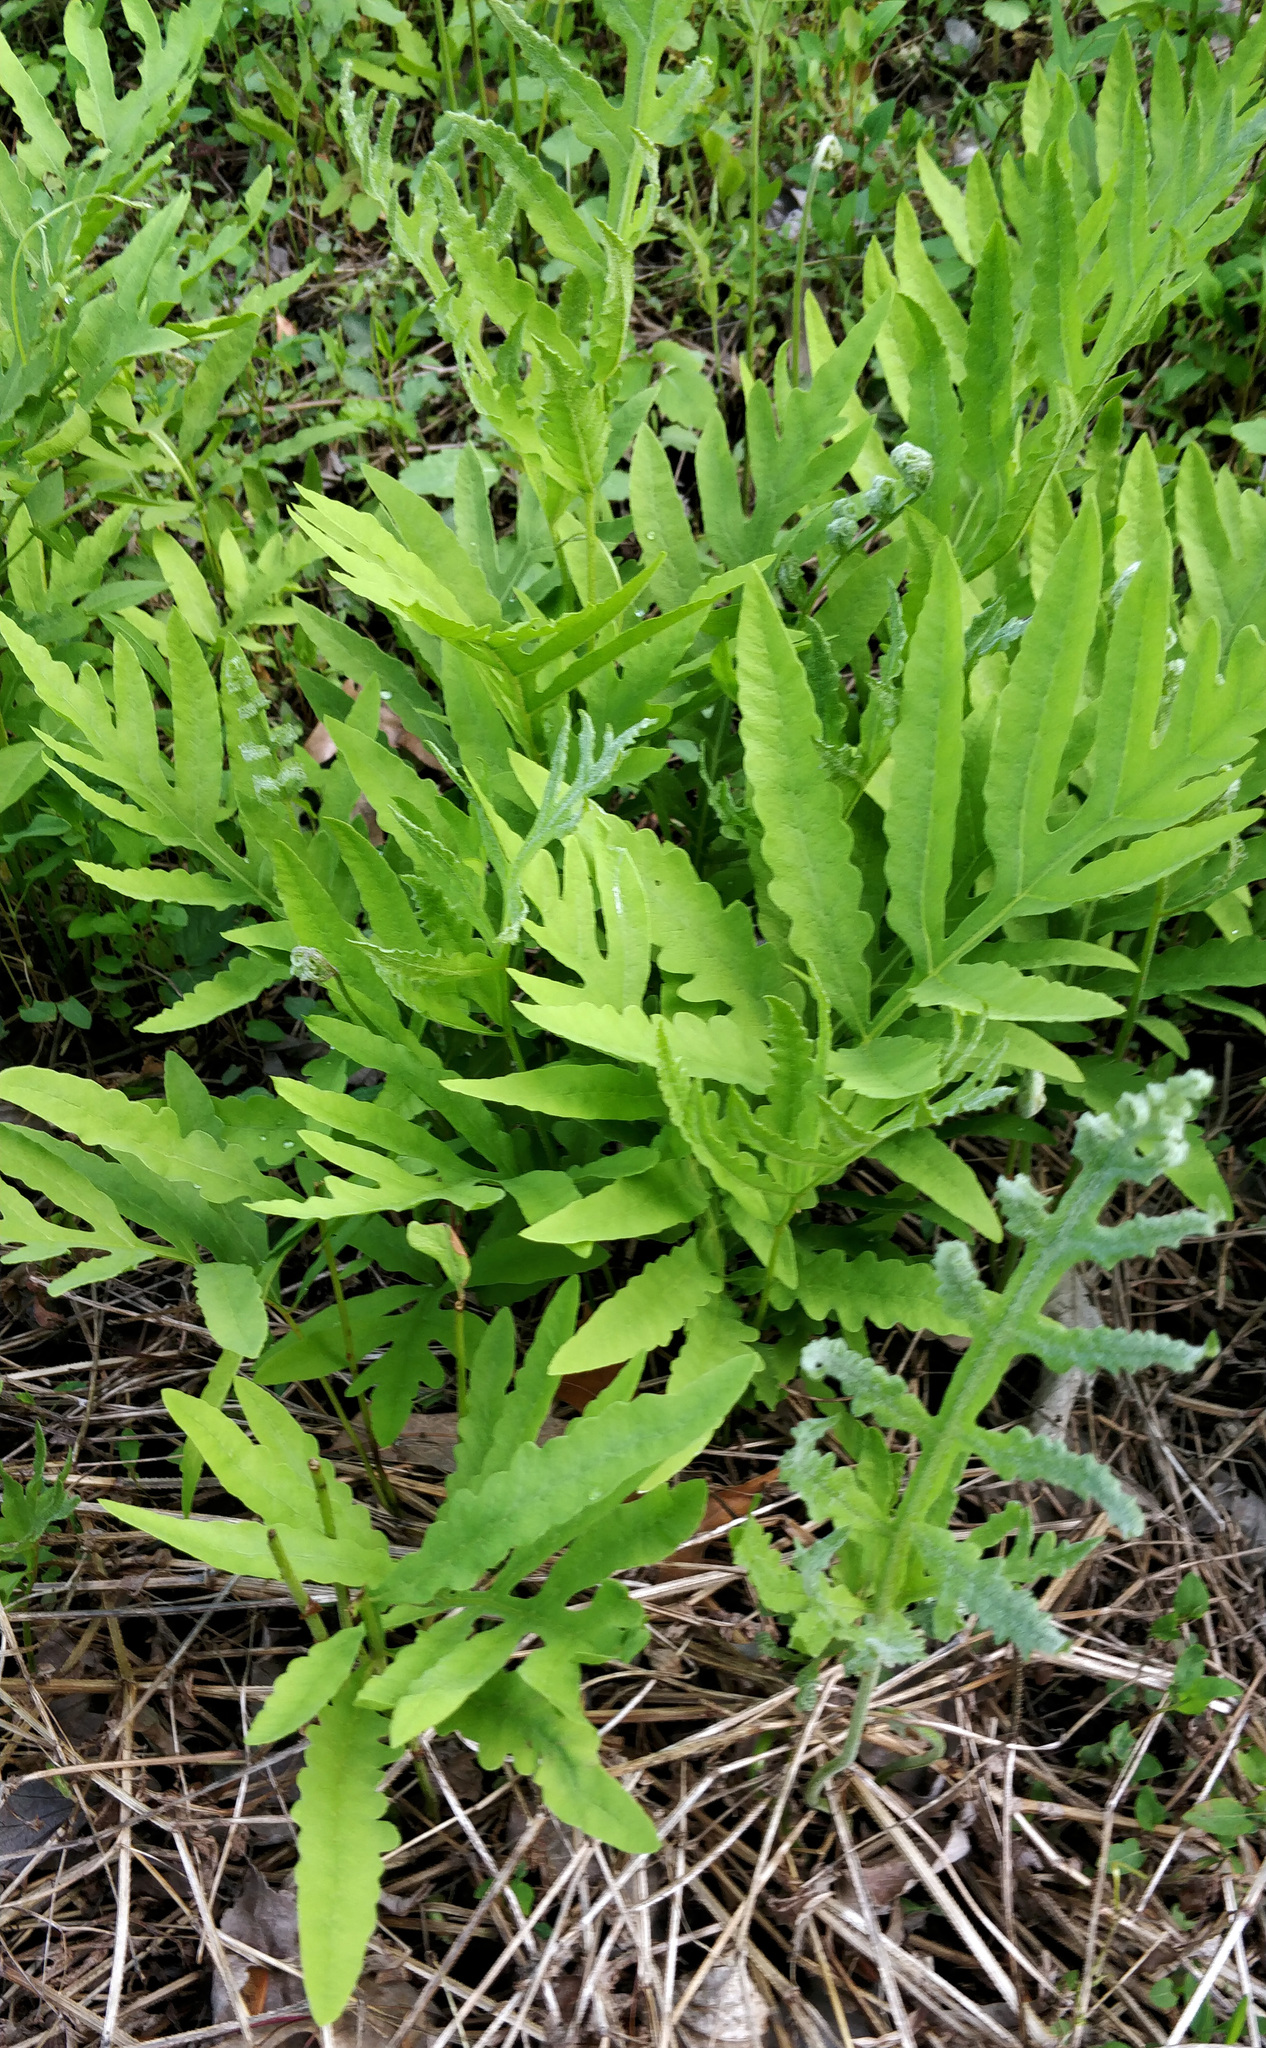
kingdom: Plantae
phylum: Tracheophyta
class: Polypodiopsida
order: Polypodiales
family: Onocleaceae
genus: Onoclea
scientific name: Onoclea sensibilis
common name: Sensitive fern
